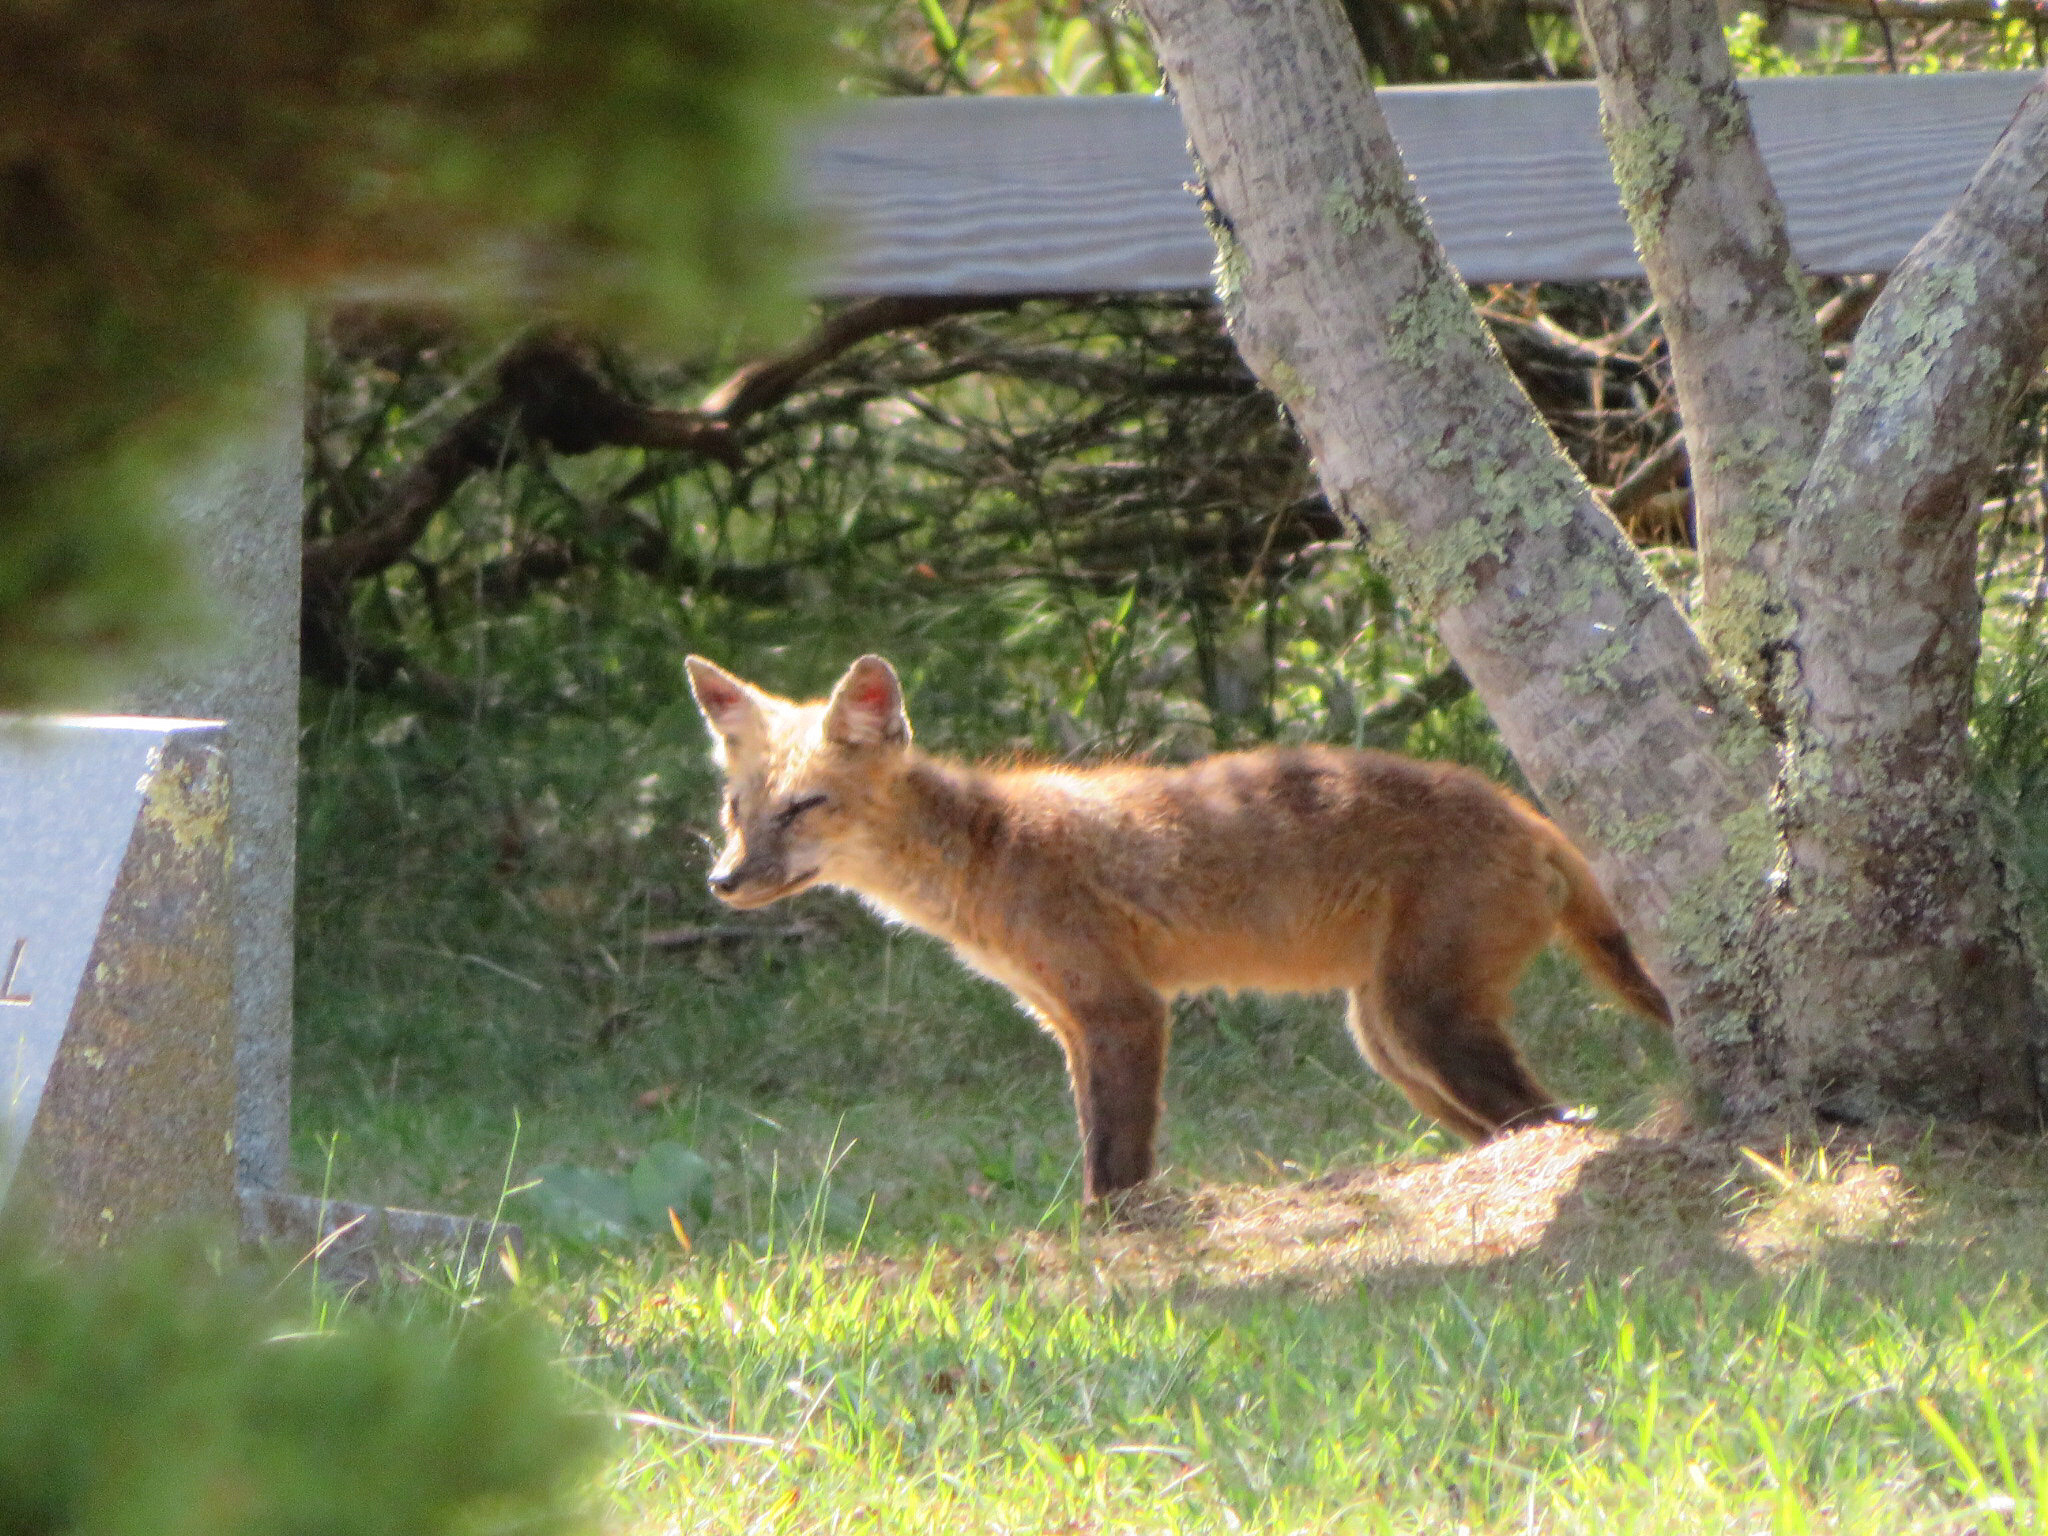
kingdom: Animalia
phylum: Chordata
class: Mammalia
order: Carnivora
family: Canidae
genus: Vulpes
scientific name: Vulpes vulpes
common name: Red fox
